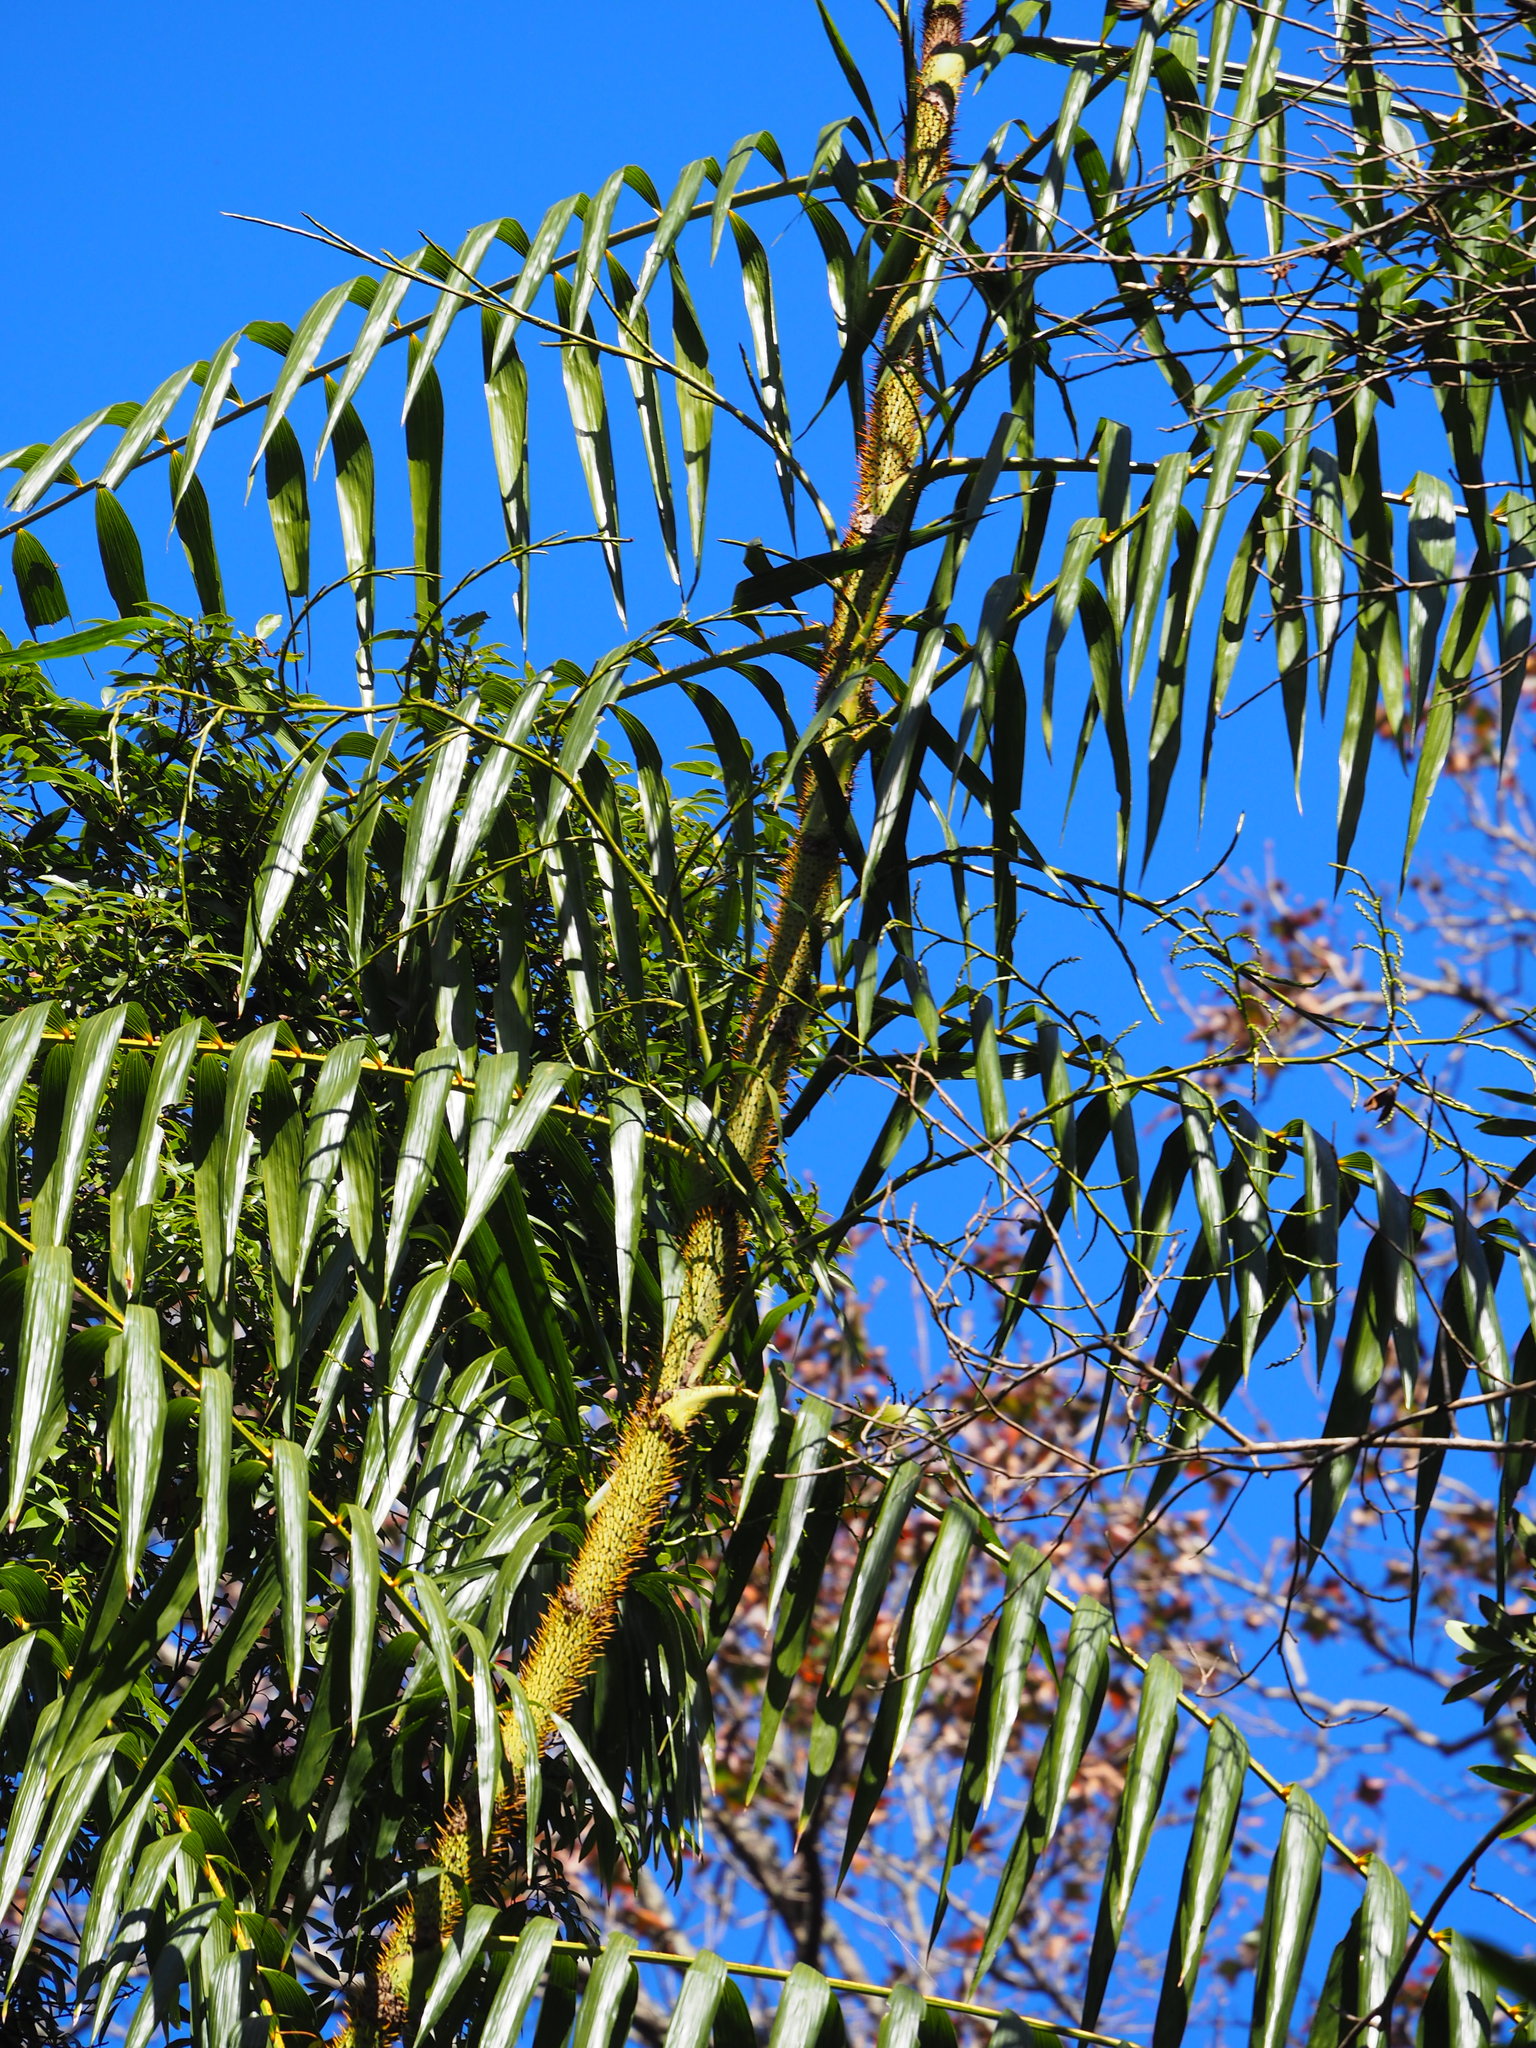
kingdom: Plantae
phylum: Tracheophyta
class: Liliopsida
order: Arecales
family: Arecaceae
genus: Calamus
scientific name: Calamus formosanus
